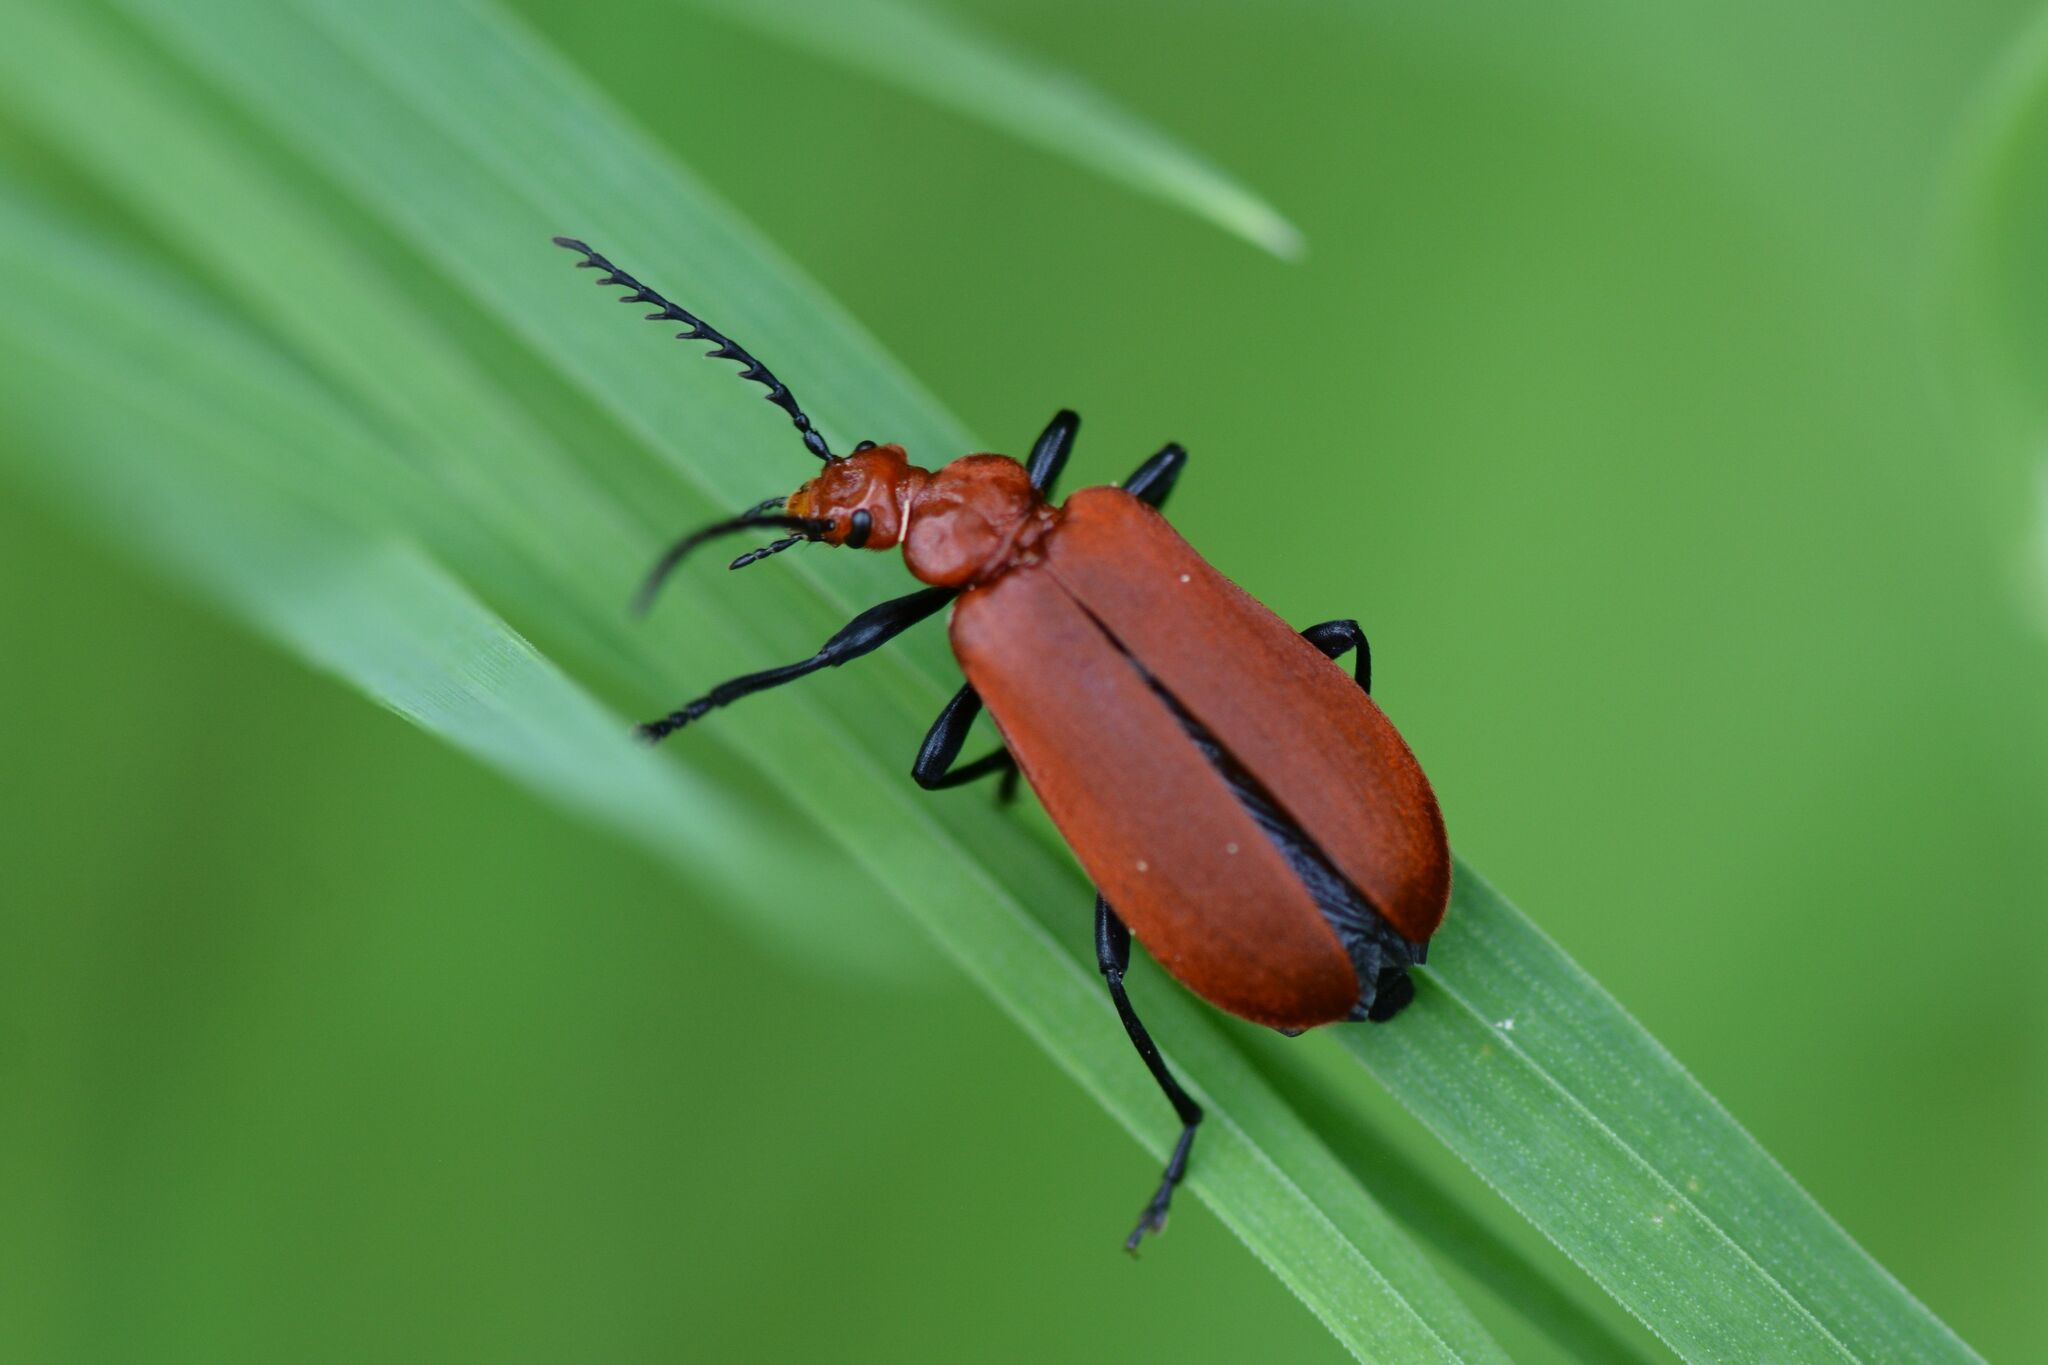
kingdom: Animalia
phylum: Arthropoda
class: Insecta
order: Coleoptera
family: Pyrochroidae
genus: Pyrochroa
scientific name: Pyrochroa serraticornis
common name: Red-headed cardinal beetle
